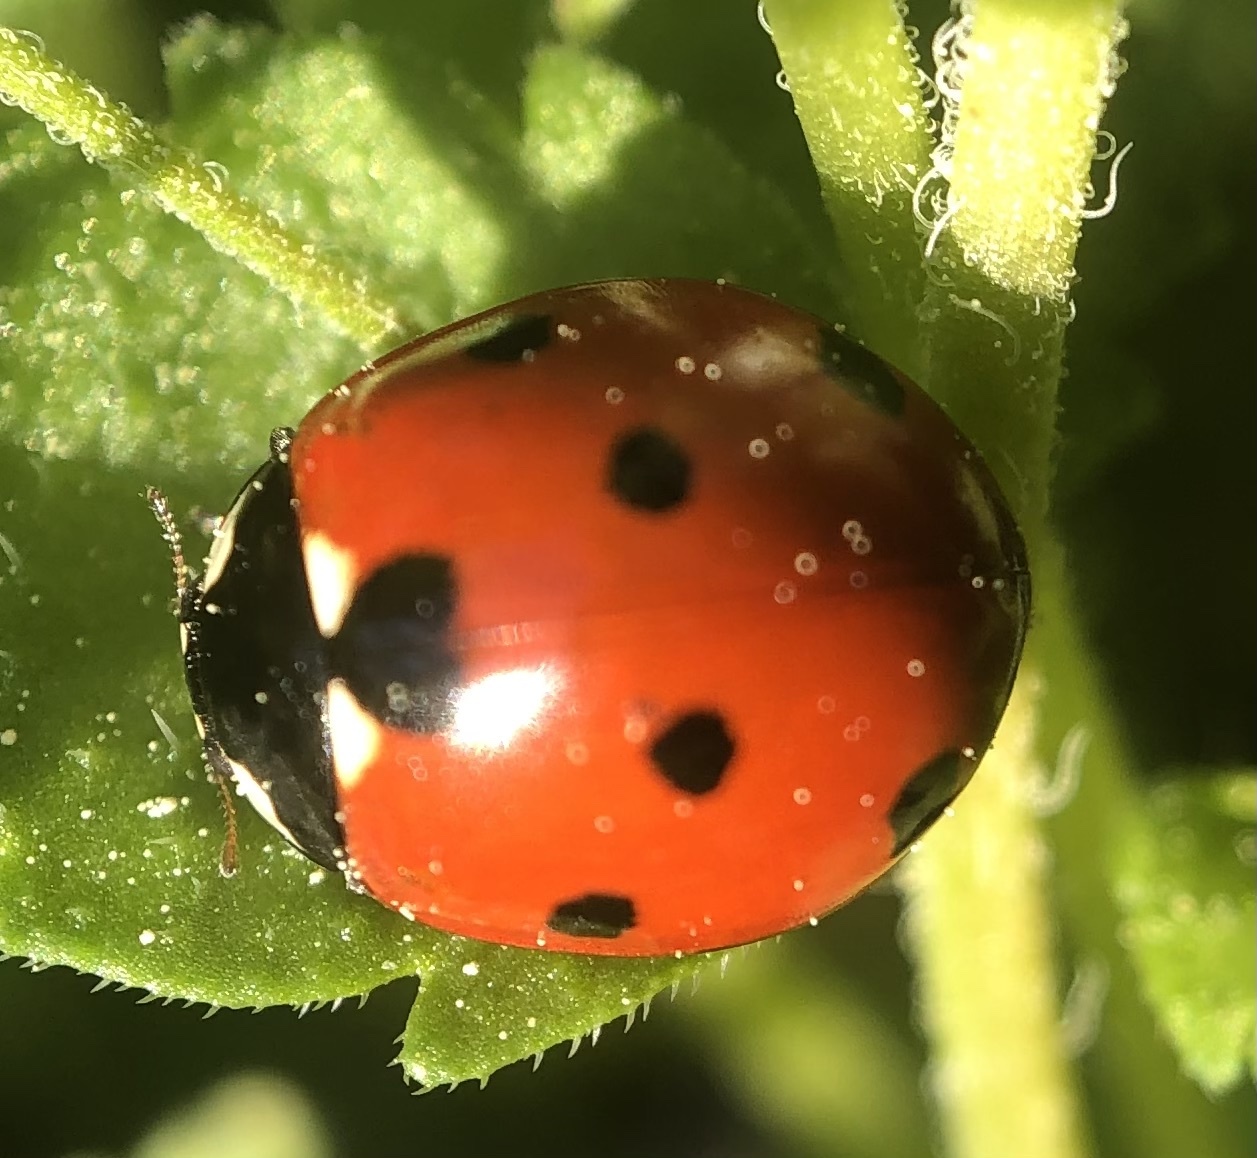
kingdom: Animalia
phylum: Arthropoda
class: Insecta
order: Coleoptera
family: Coccinellidae
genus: Coccinella
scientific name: Coccinella septempunctata
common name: Sevenspotted lady beetle
